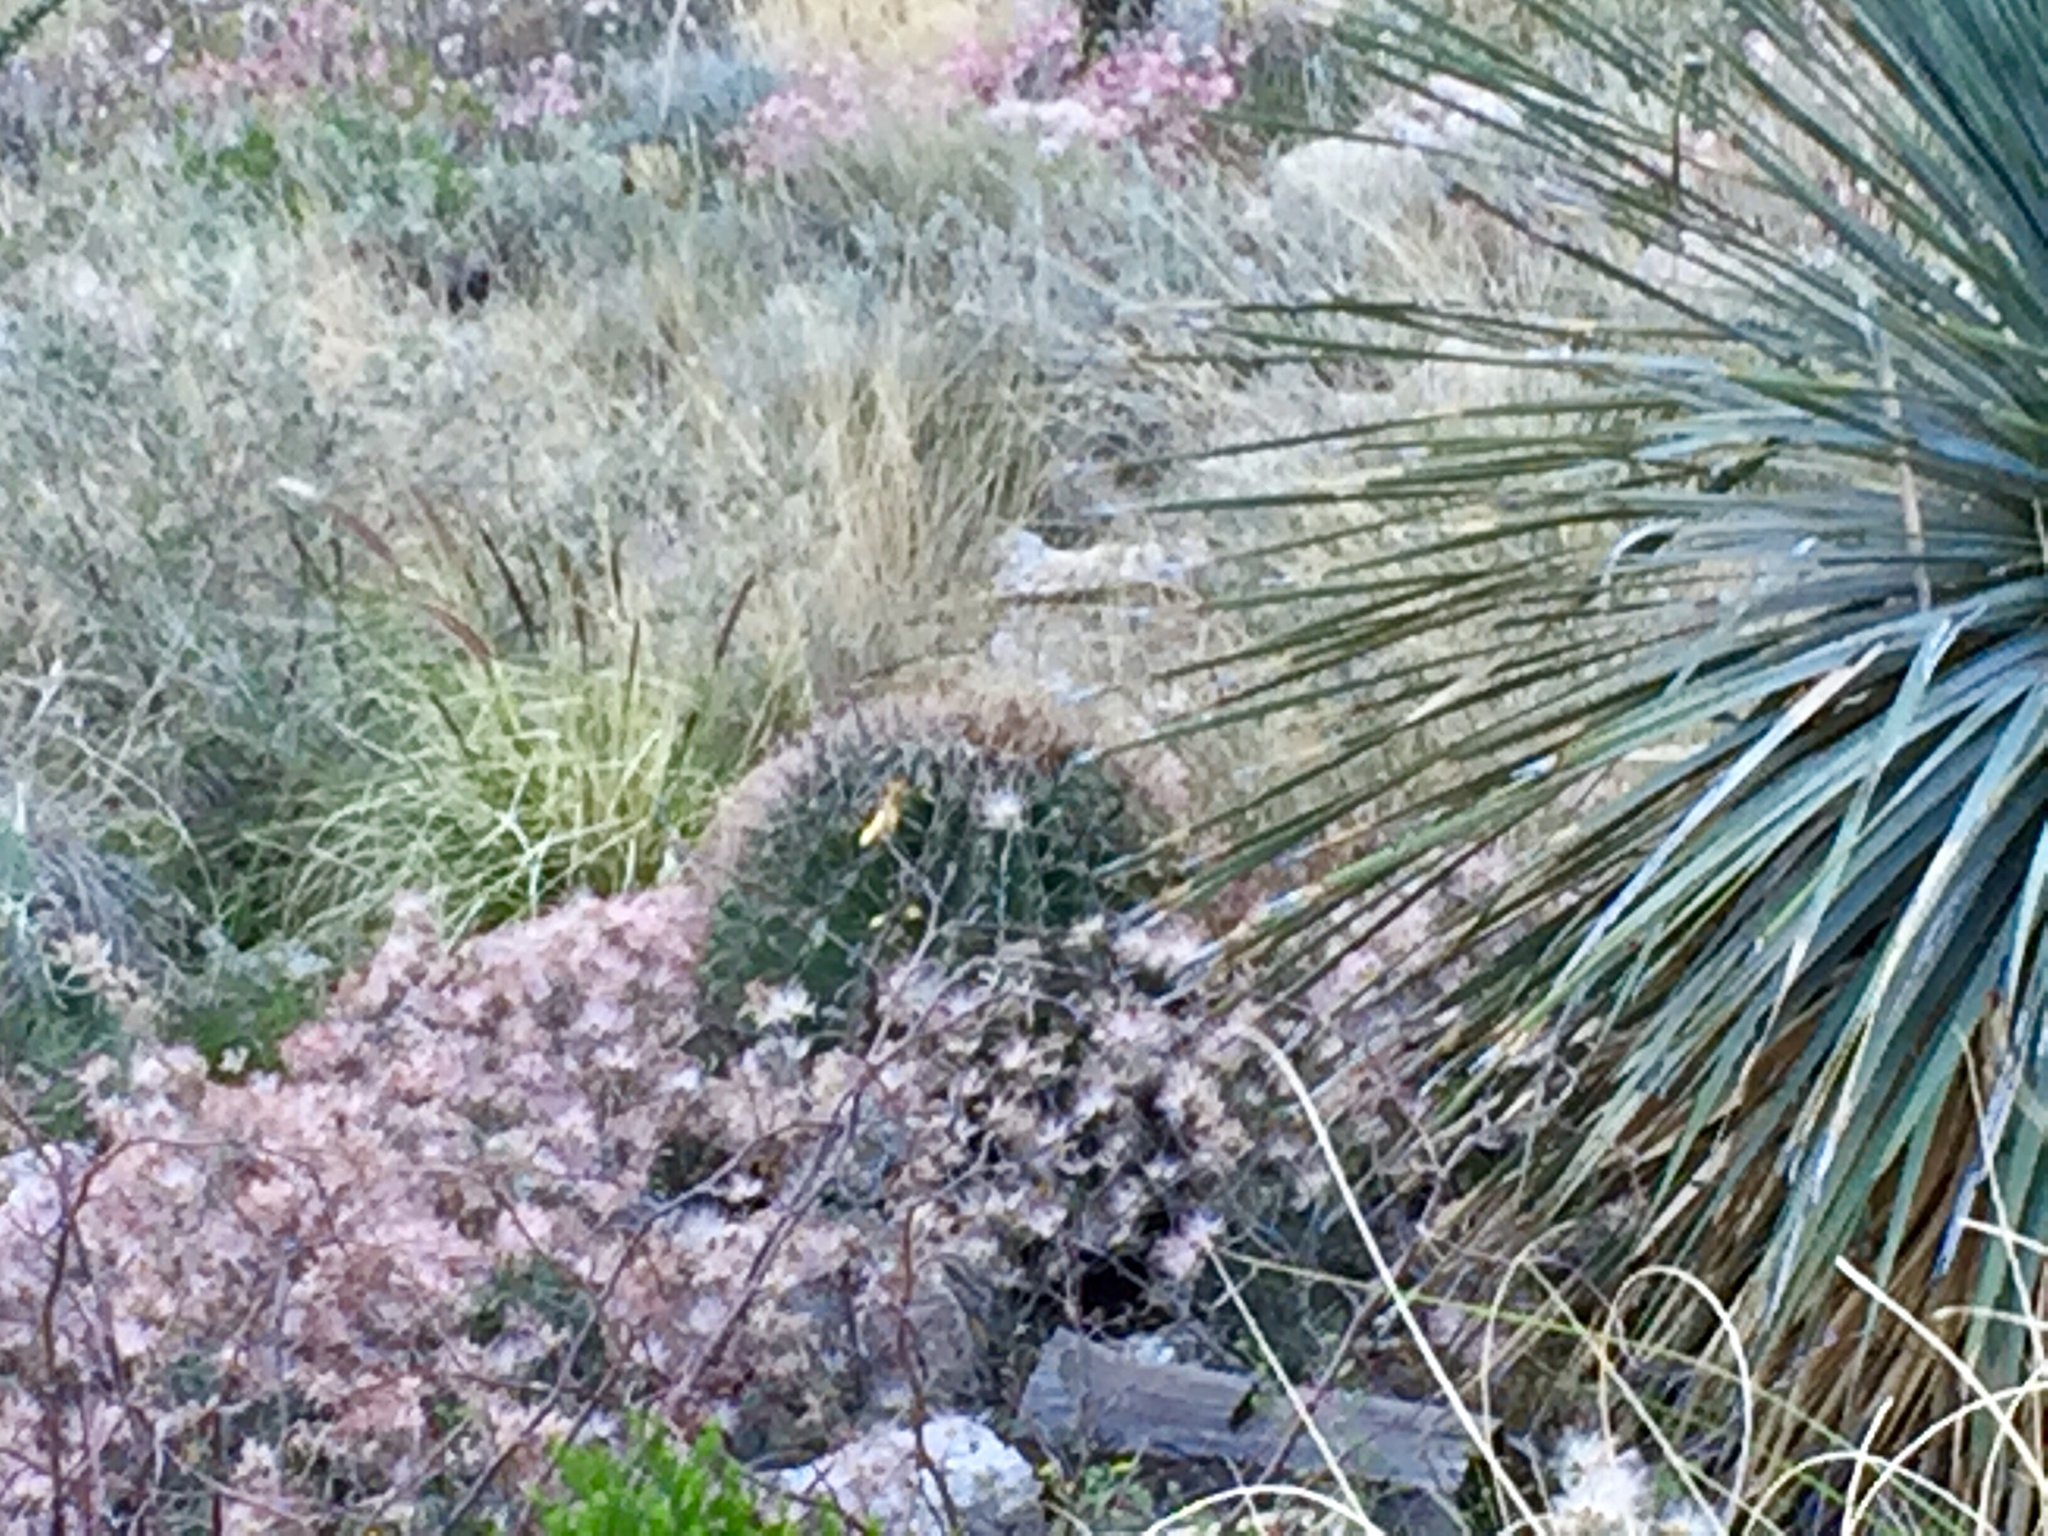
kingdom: Plantae
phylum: Tracheophyta
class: Magnoliopsida
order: Fabales
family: Fabaceae
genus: Calliandra
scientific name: Calliandra eriophylla
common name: Fairy-duster
